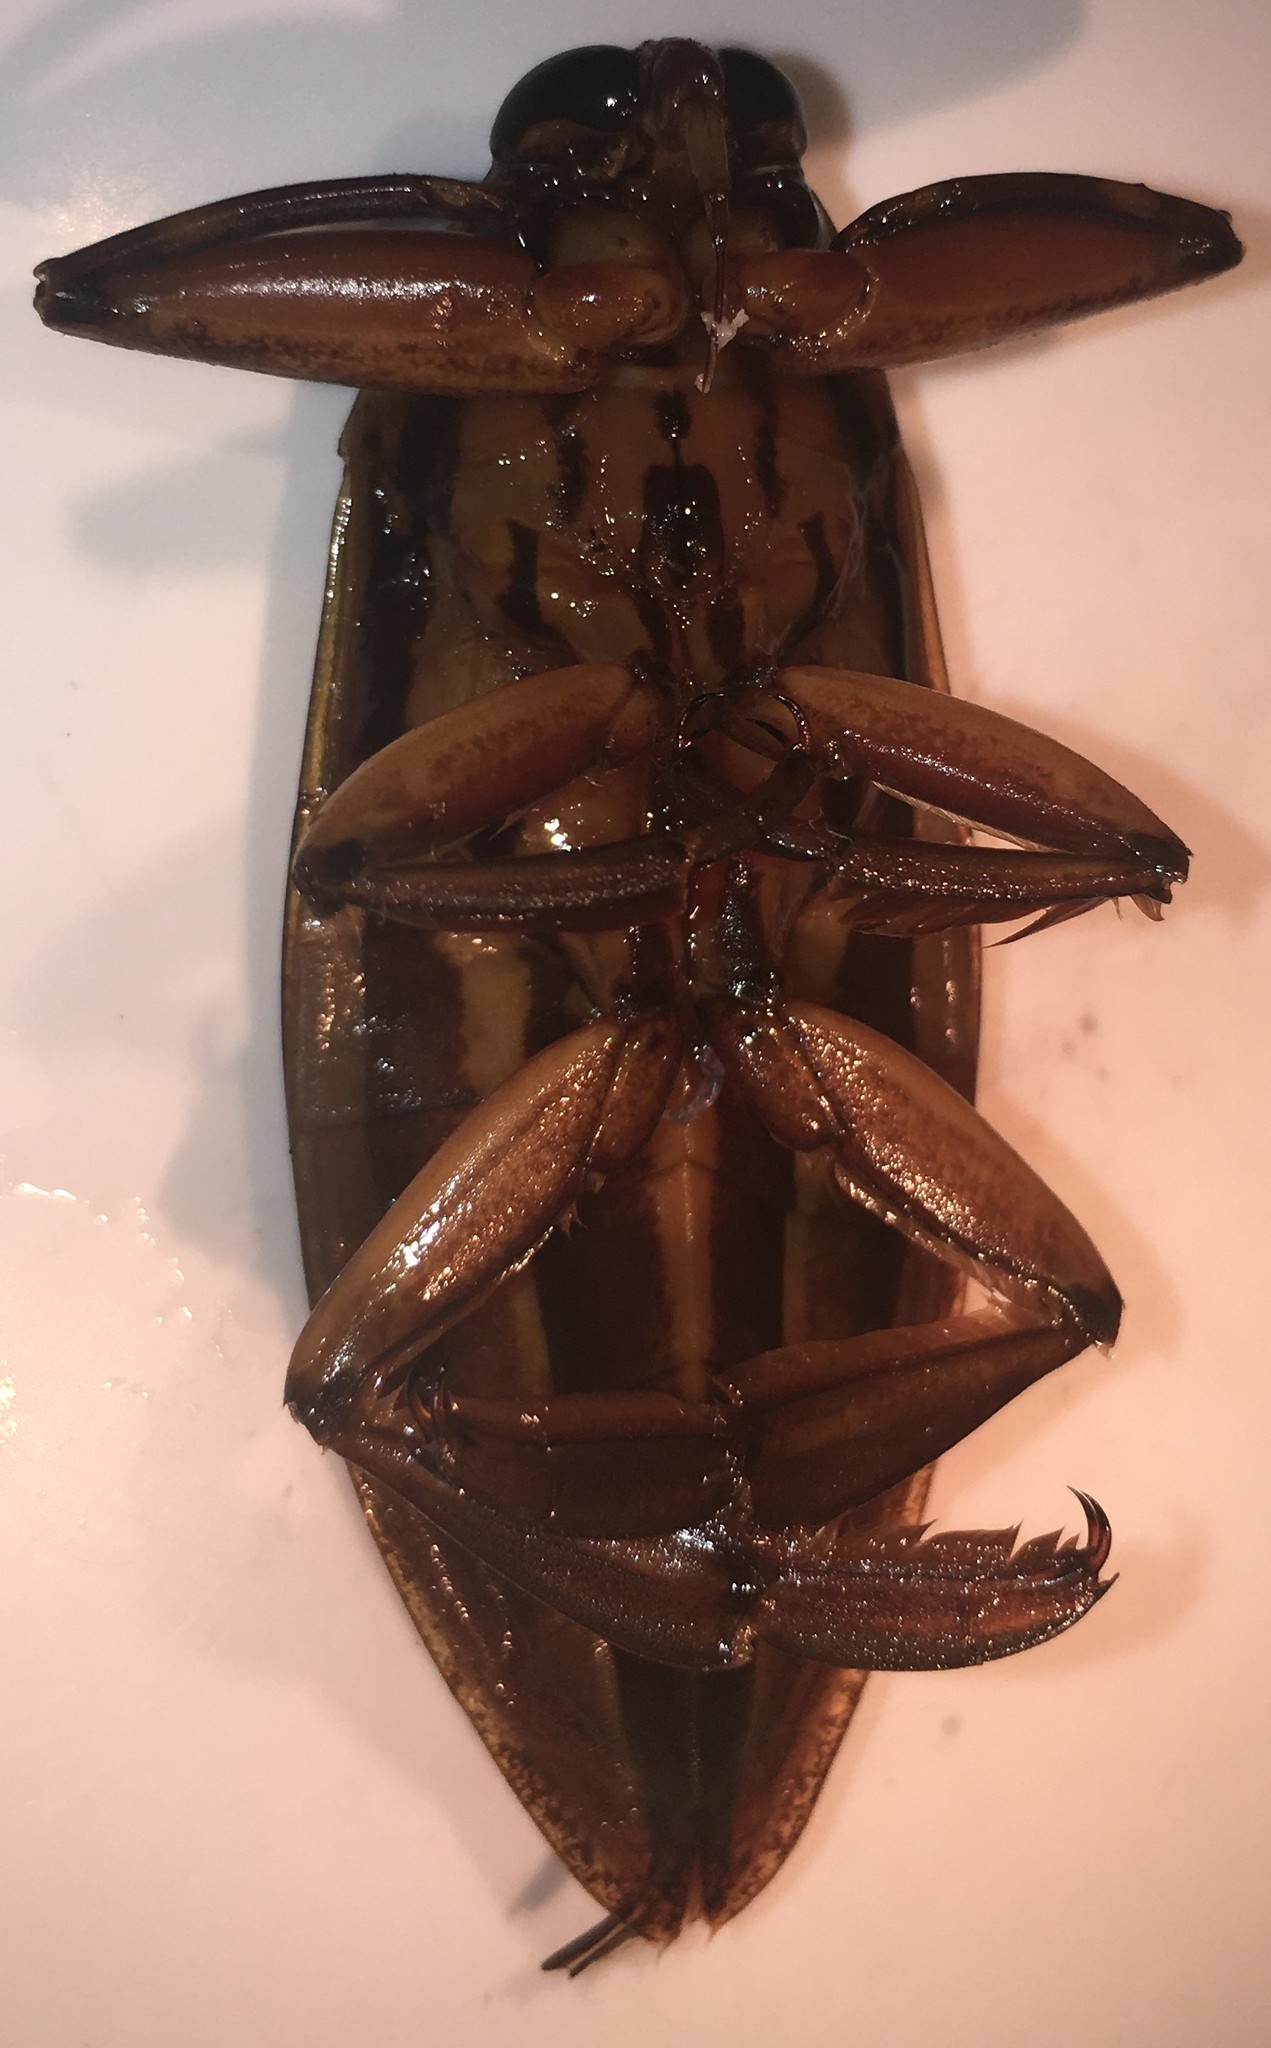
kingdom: Animalia
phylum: Arthropoda
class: Insecta
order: Hemiptera
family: Belostomatidae
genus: Benacus
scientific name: Benacus griseus
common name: Eastern toe-biter
